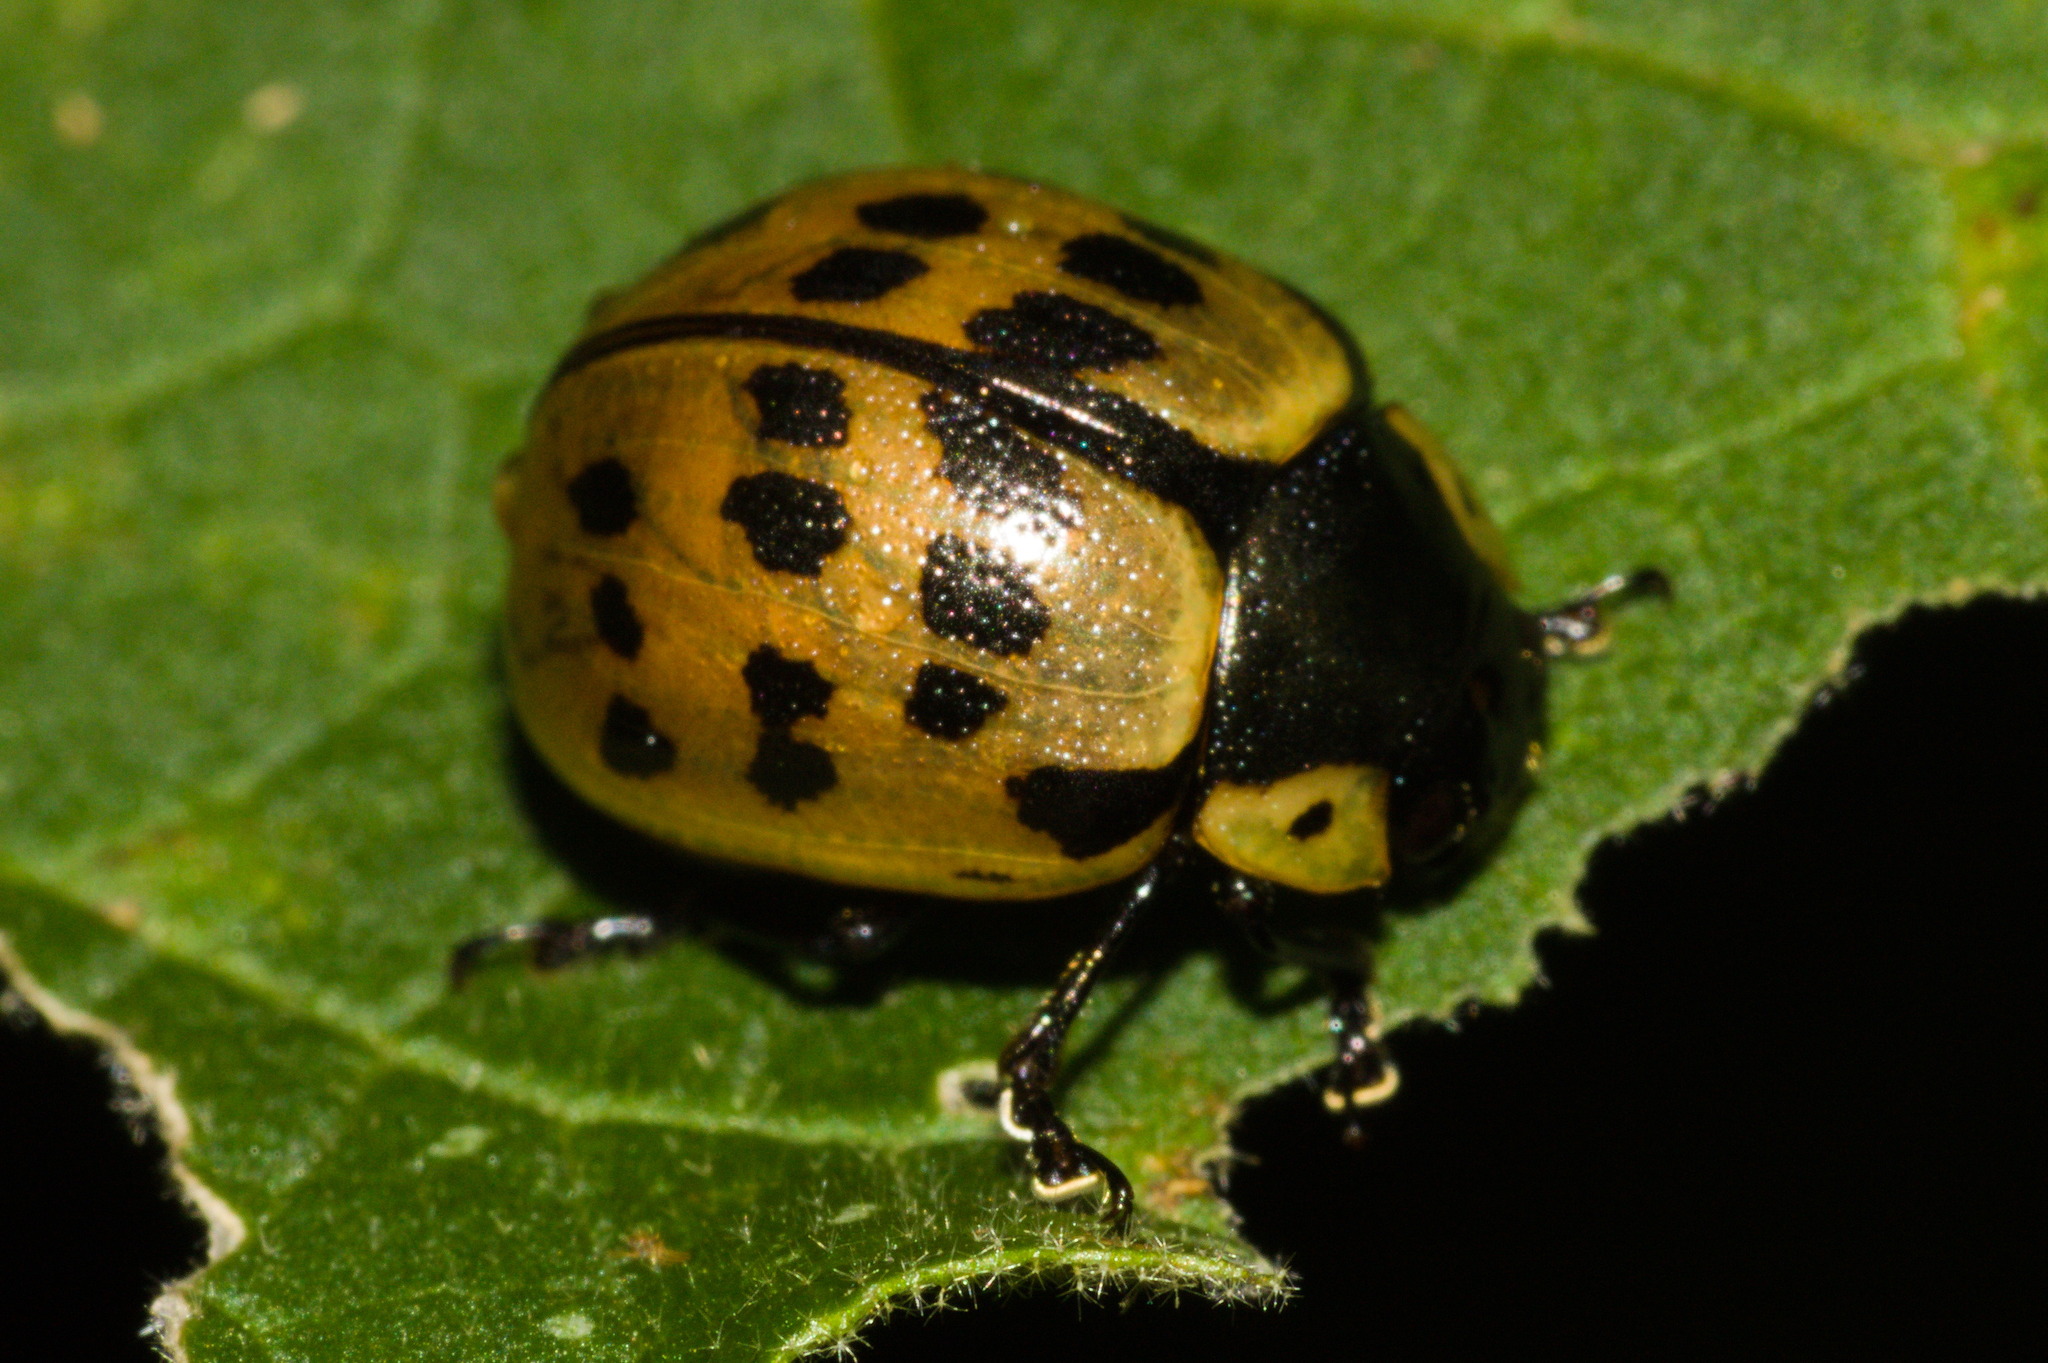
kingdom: Animalia
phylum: Arthropoda
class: Insecta
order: Coleoptera
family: Chrysomelidae
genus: Platyphora
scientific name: Platyphora
